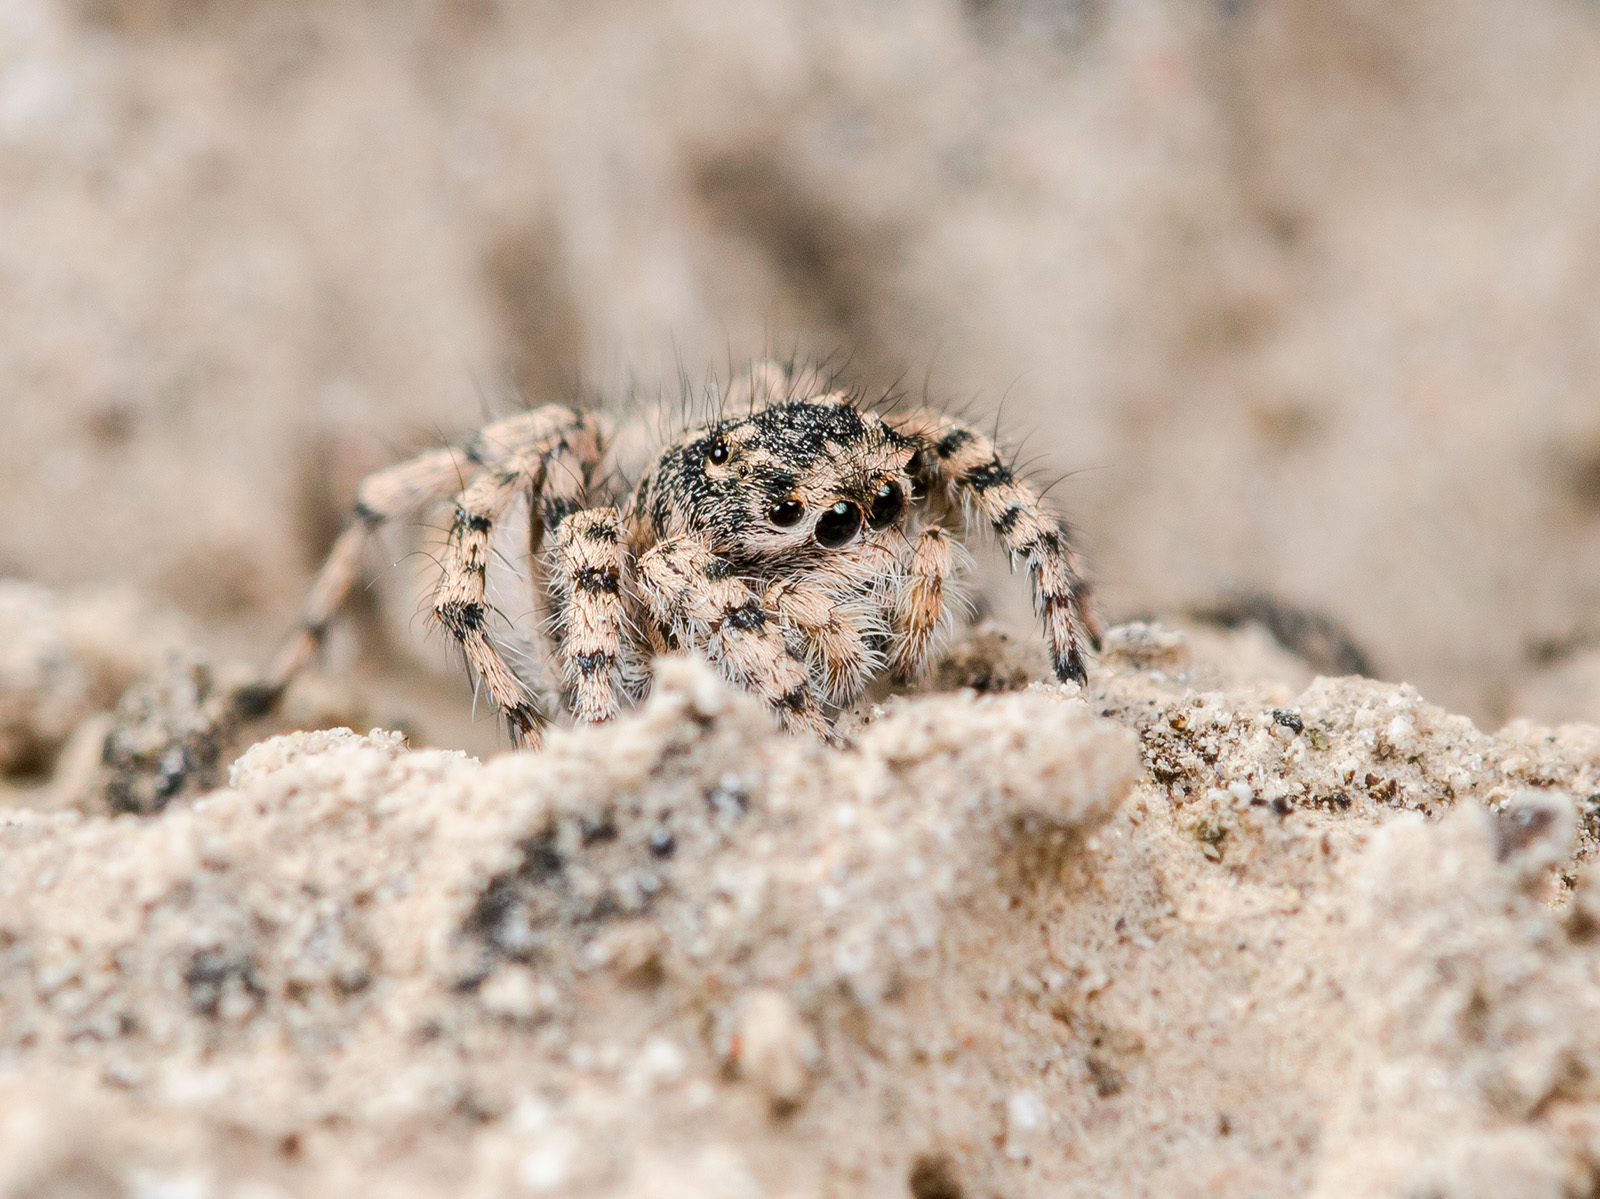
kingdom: Animalia
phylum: Arthropoda
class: Arachnida
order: Araneae
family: Salticidae
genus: Aelurillus
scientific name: Aelurillus dubatolovi
